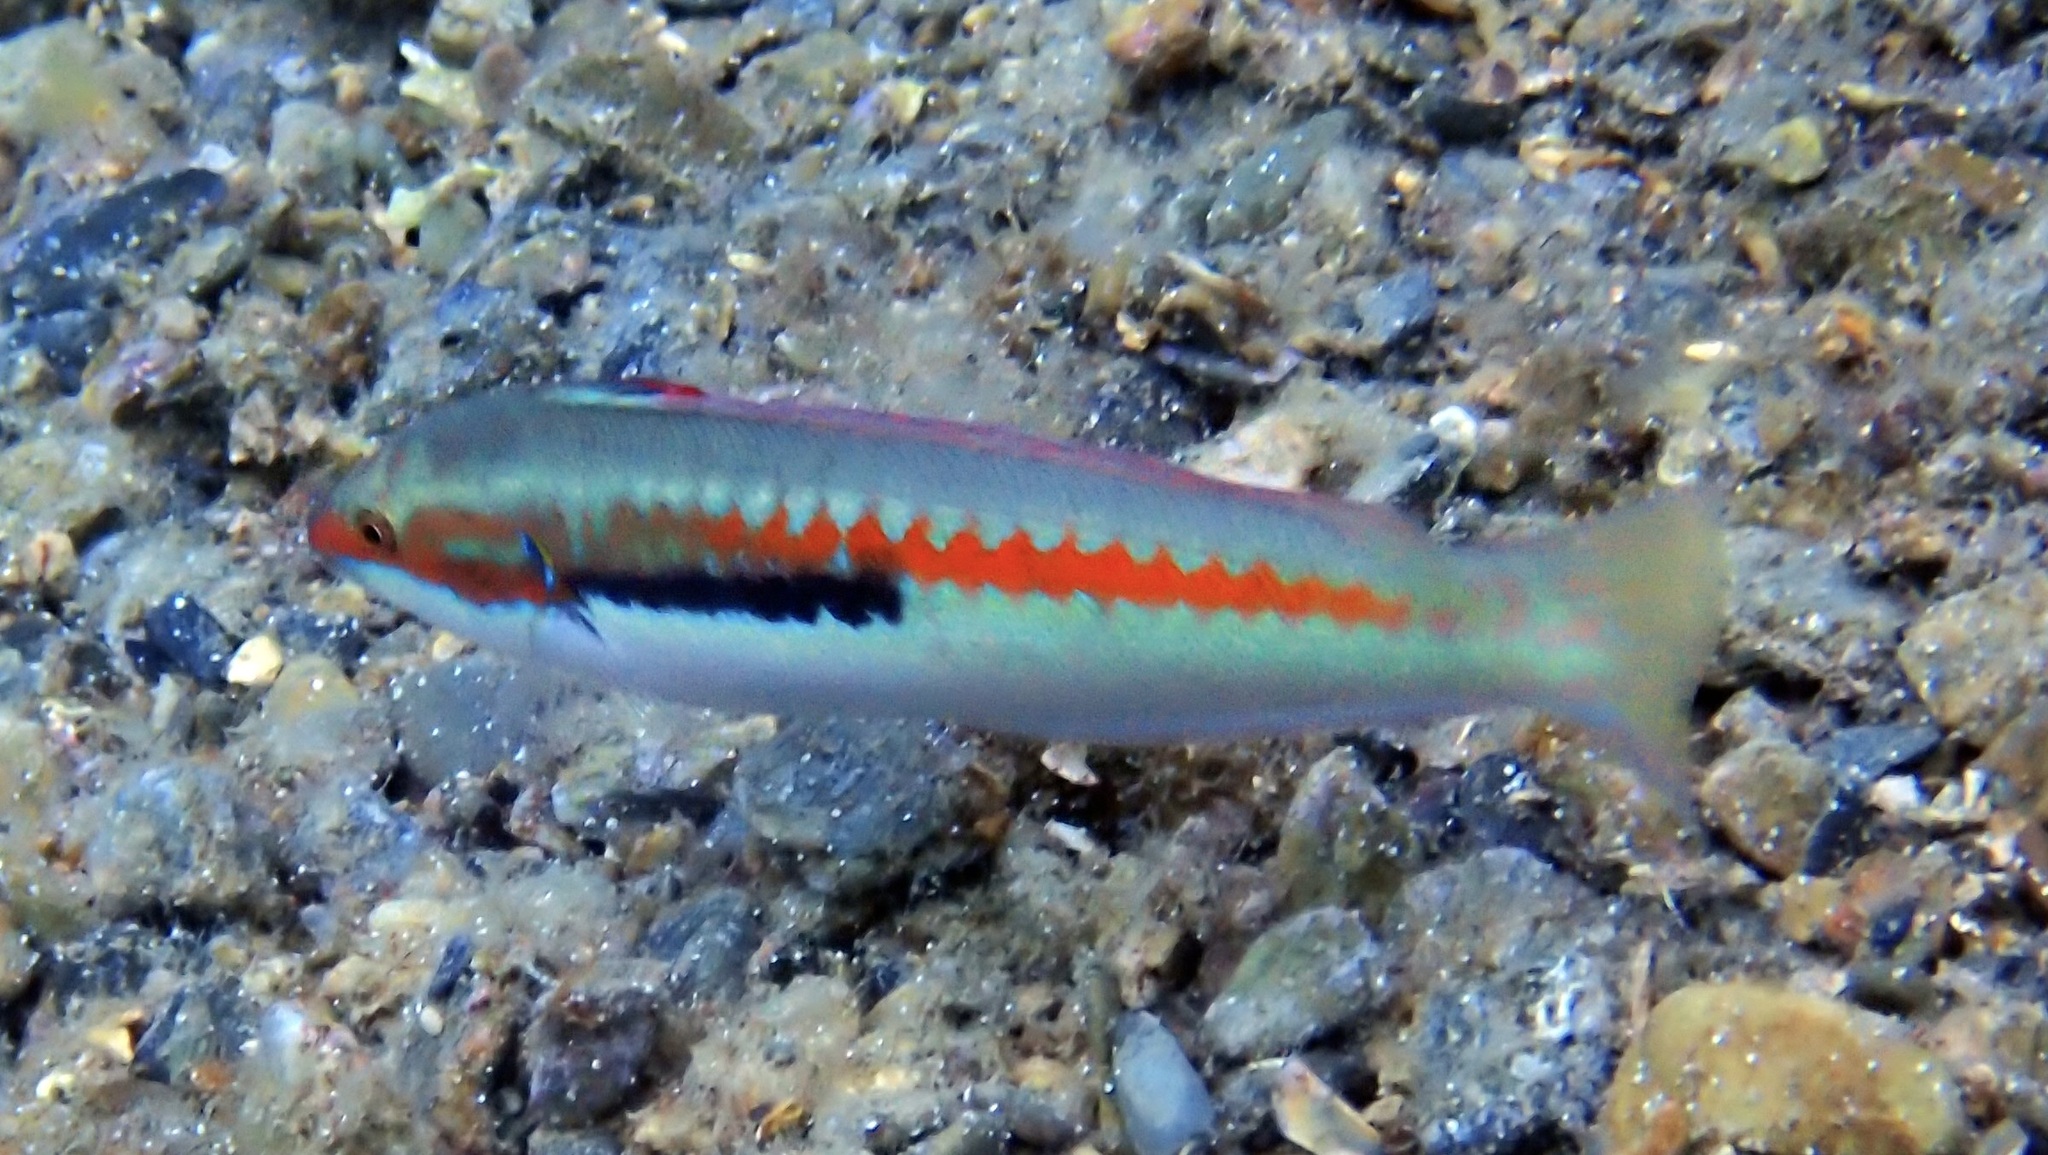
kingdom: Animalia
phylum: Chordata
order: Perciformes
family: Labridae
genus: Coris
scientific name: Coris julis
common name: Rainbow wrasse
